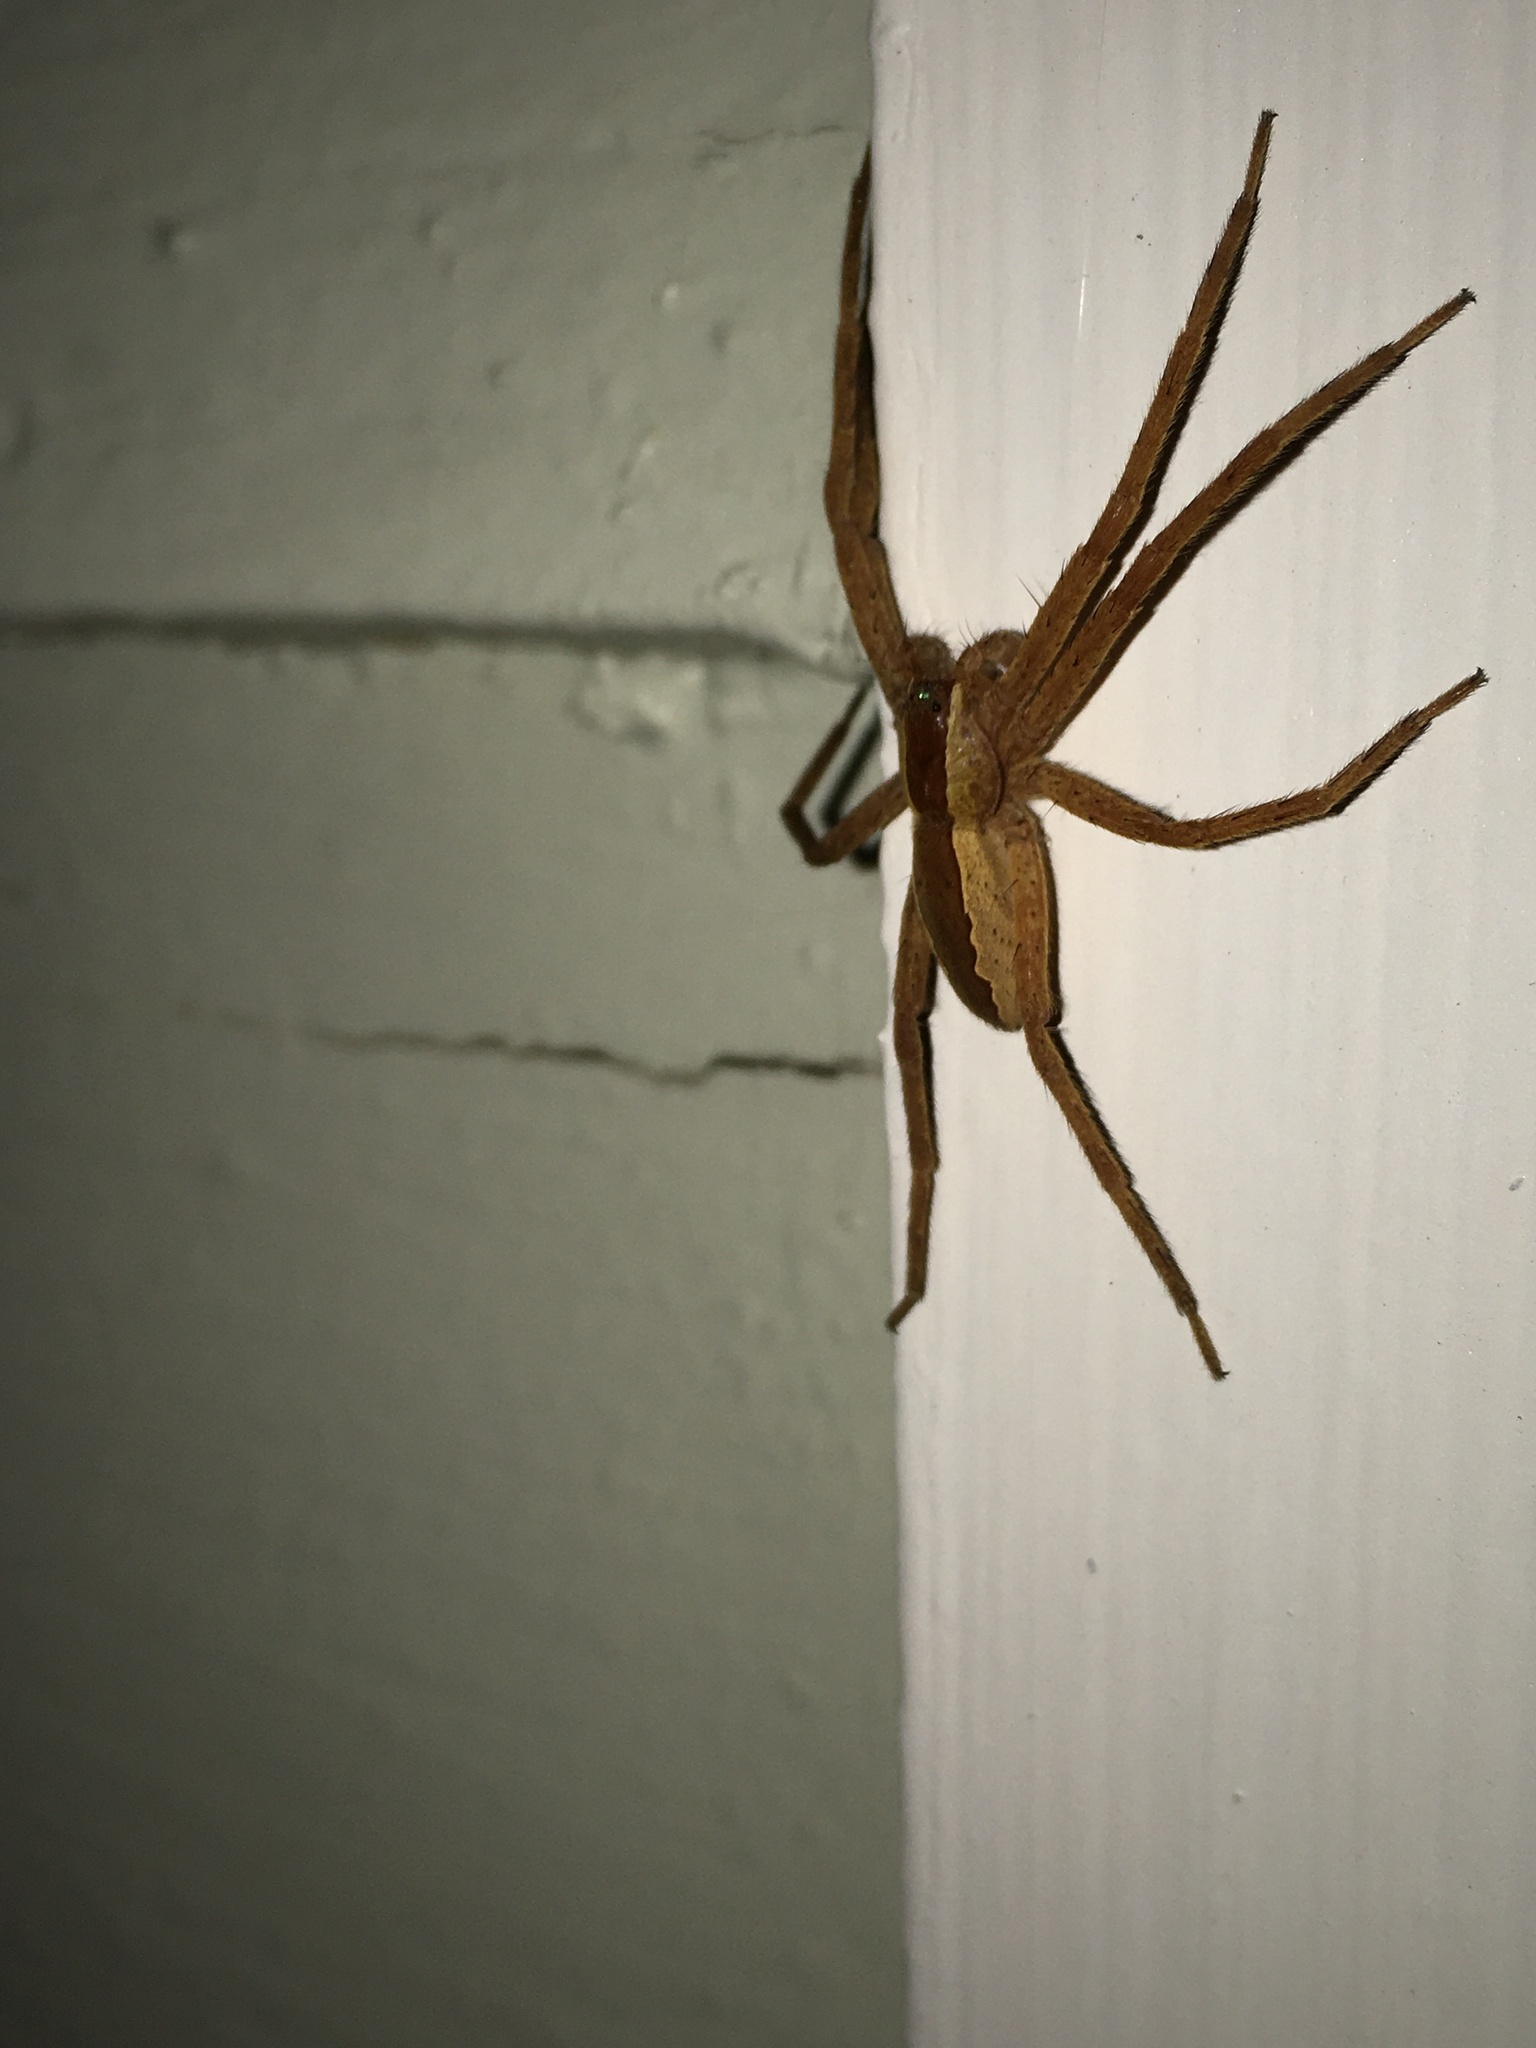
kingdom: Animalia
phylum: Arthropoda
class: Arachnida
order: Araneae
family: Pisauridae
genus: Pisaurina
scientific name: Pisaurina mira
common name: American nursery web spider
